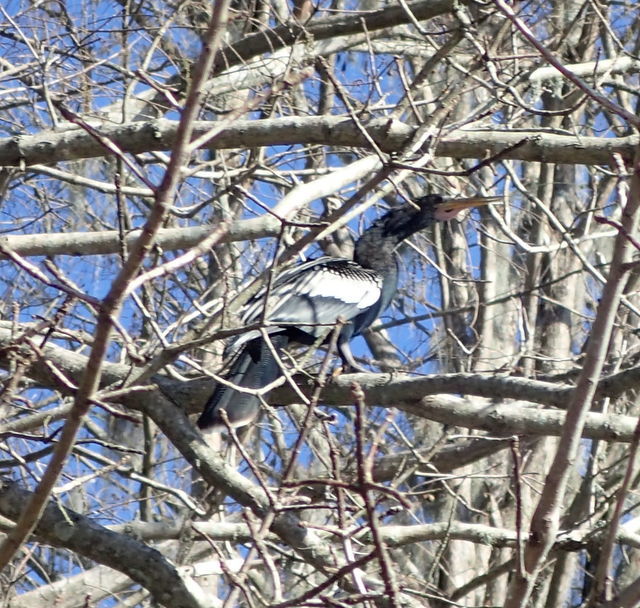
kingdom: Animalia
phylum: Chordata
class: Aves
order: Suliformes
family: Anhingidae
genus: Anhinga
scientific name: Anhinga anhinga
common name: Anhinga
